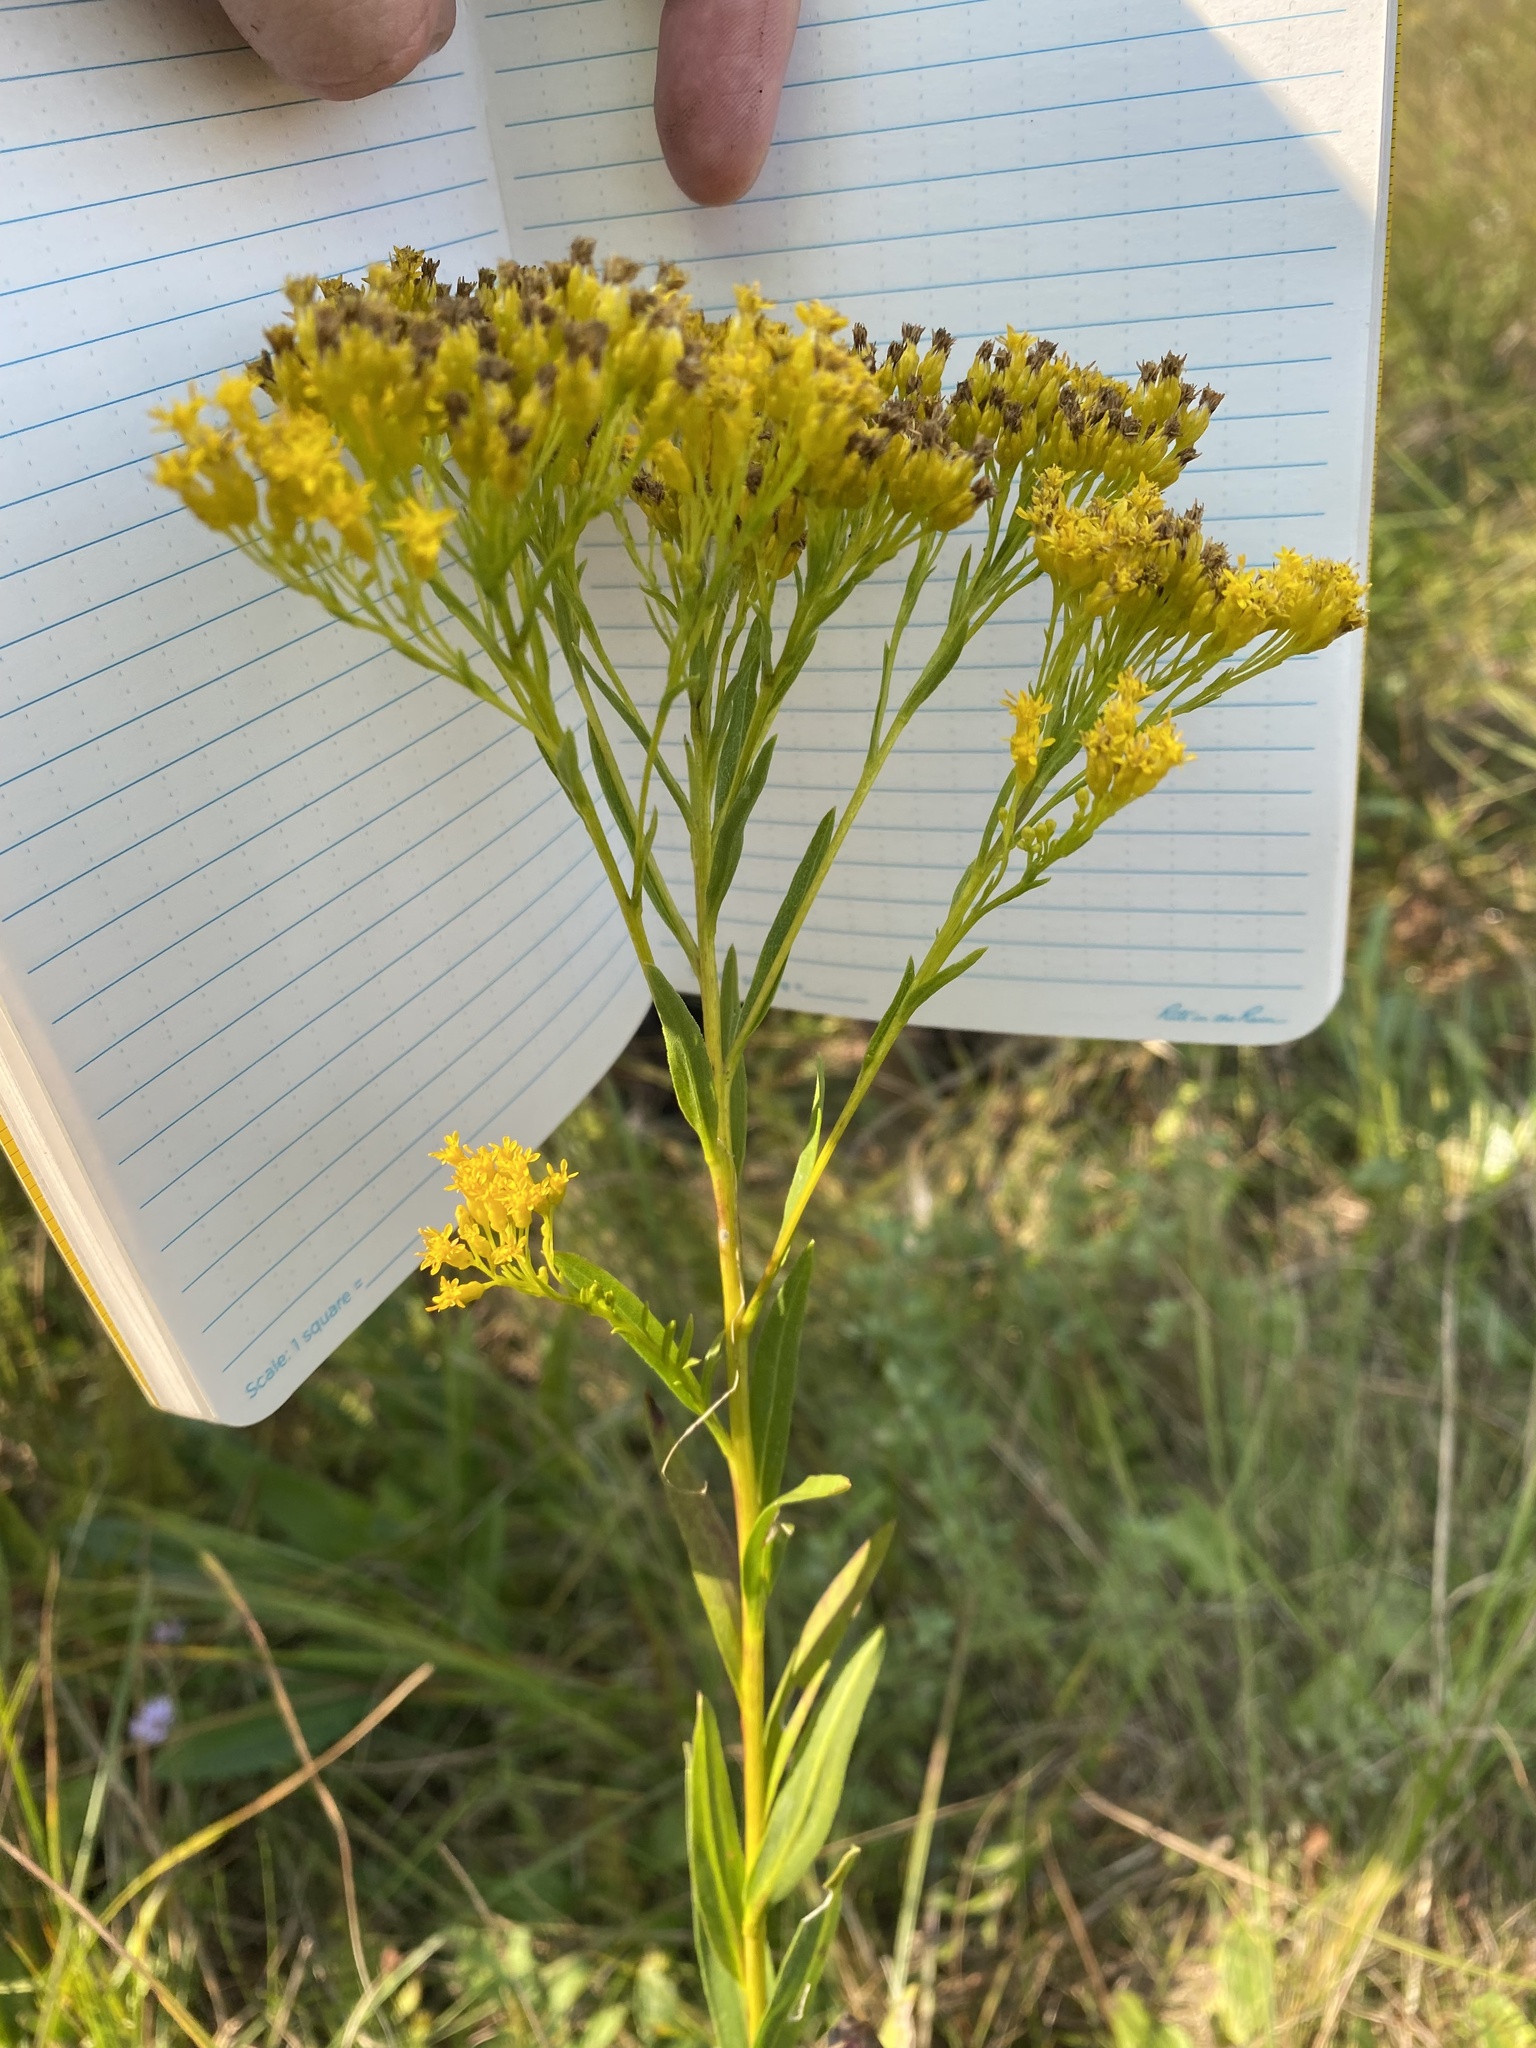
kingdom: Plantae
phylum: Tracheophyta
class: Magnoliopsida
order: Asterales
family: Asteraceae
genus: Solidago
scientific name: Solidago ohioensis
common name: Ohio goldenrod
